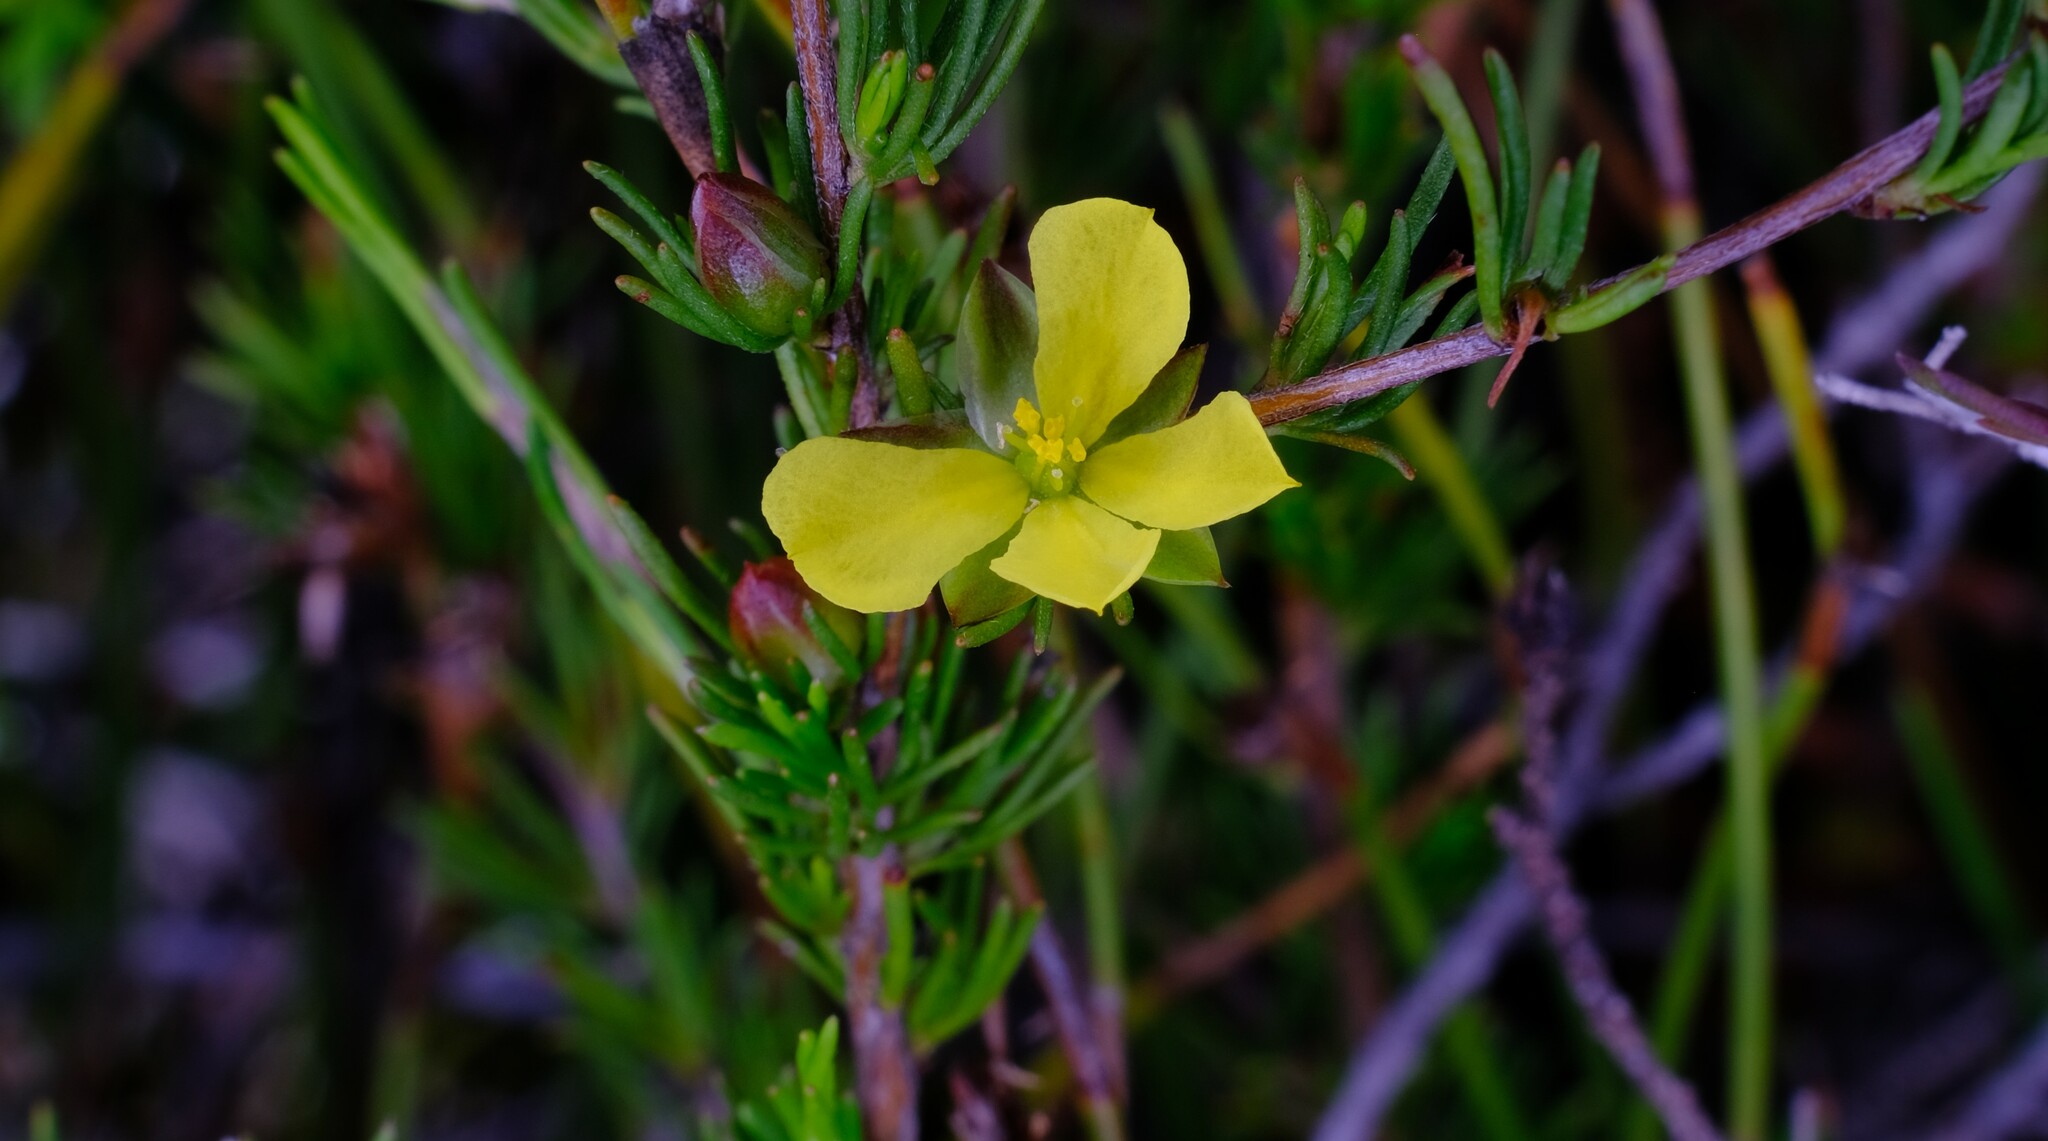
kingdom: Plantae
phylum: Tracheophyta
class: Magnoliopsida
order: Dilleniales
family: Dilleniaceae
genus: Hibbertia
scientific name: Hibbertia fasciculata
